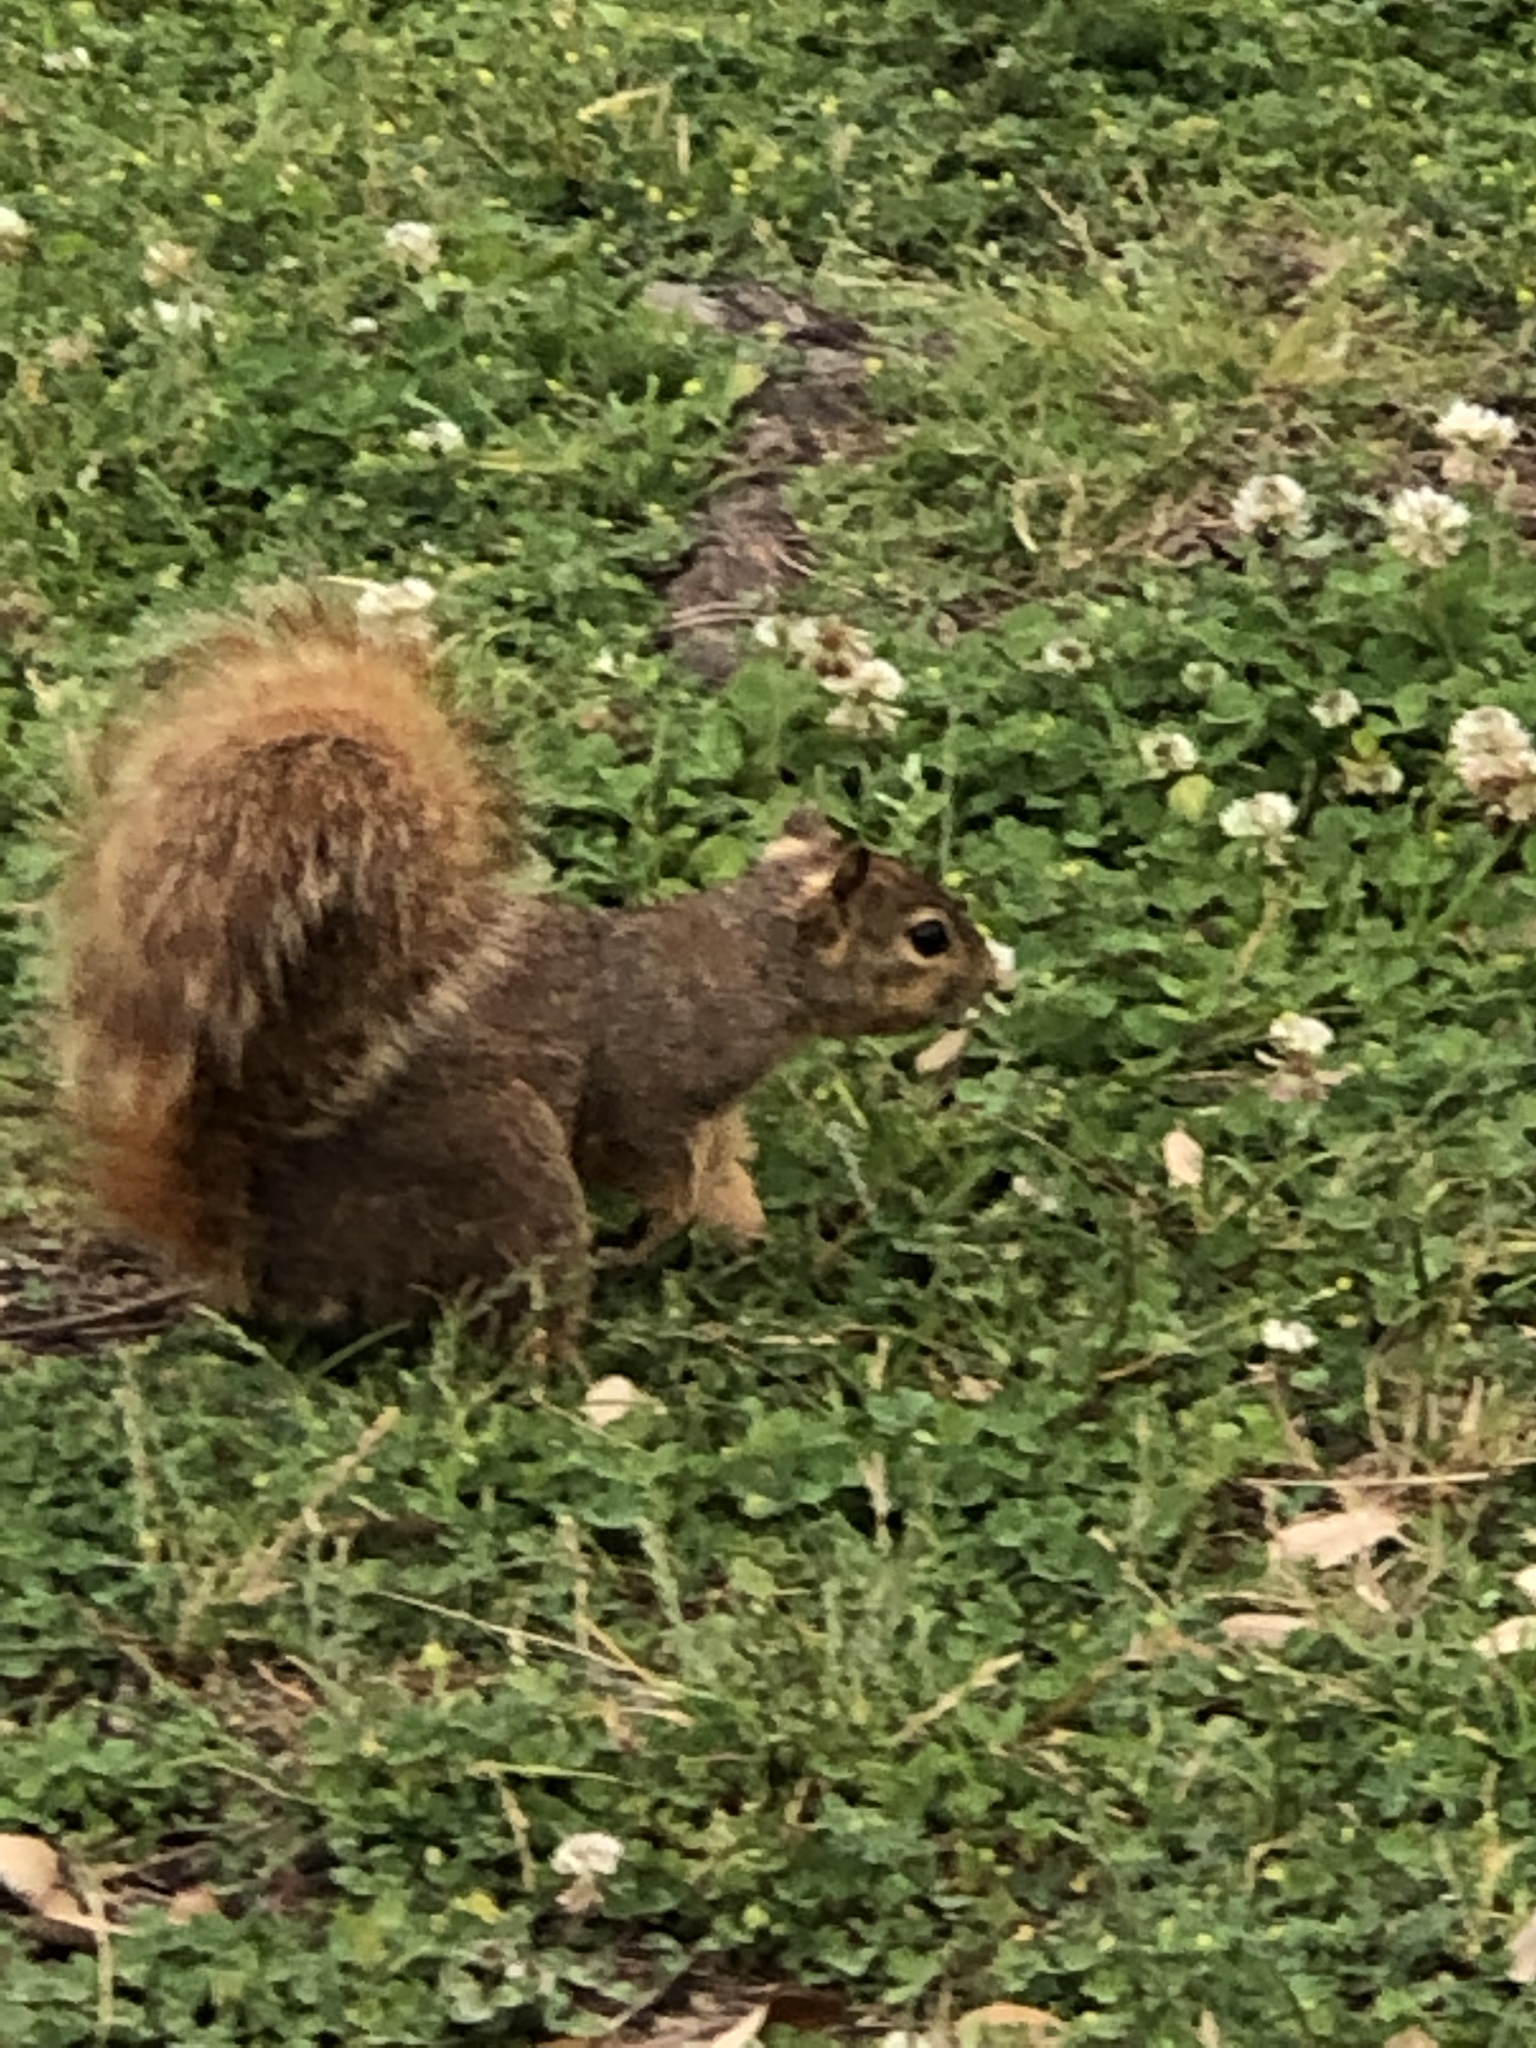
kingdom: Animalia
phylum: Chordata
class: Mammalia
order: Rodentia
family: Sciuridae
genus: Sciurus
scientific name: Sciurus niger
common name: Fox squirrel
